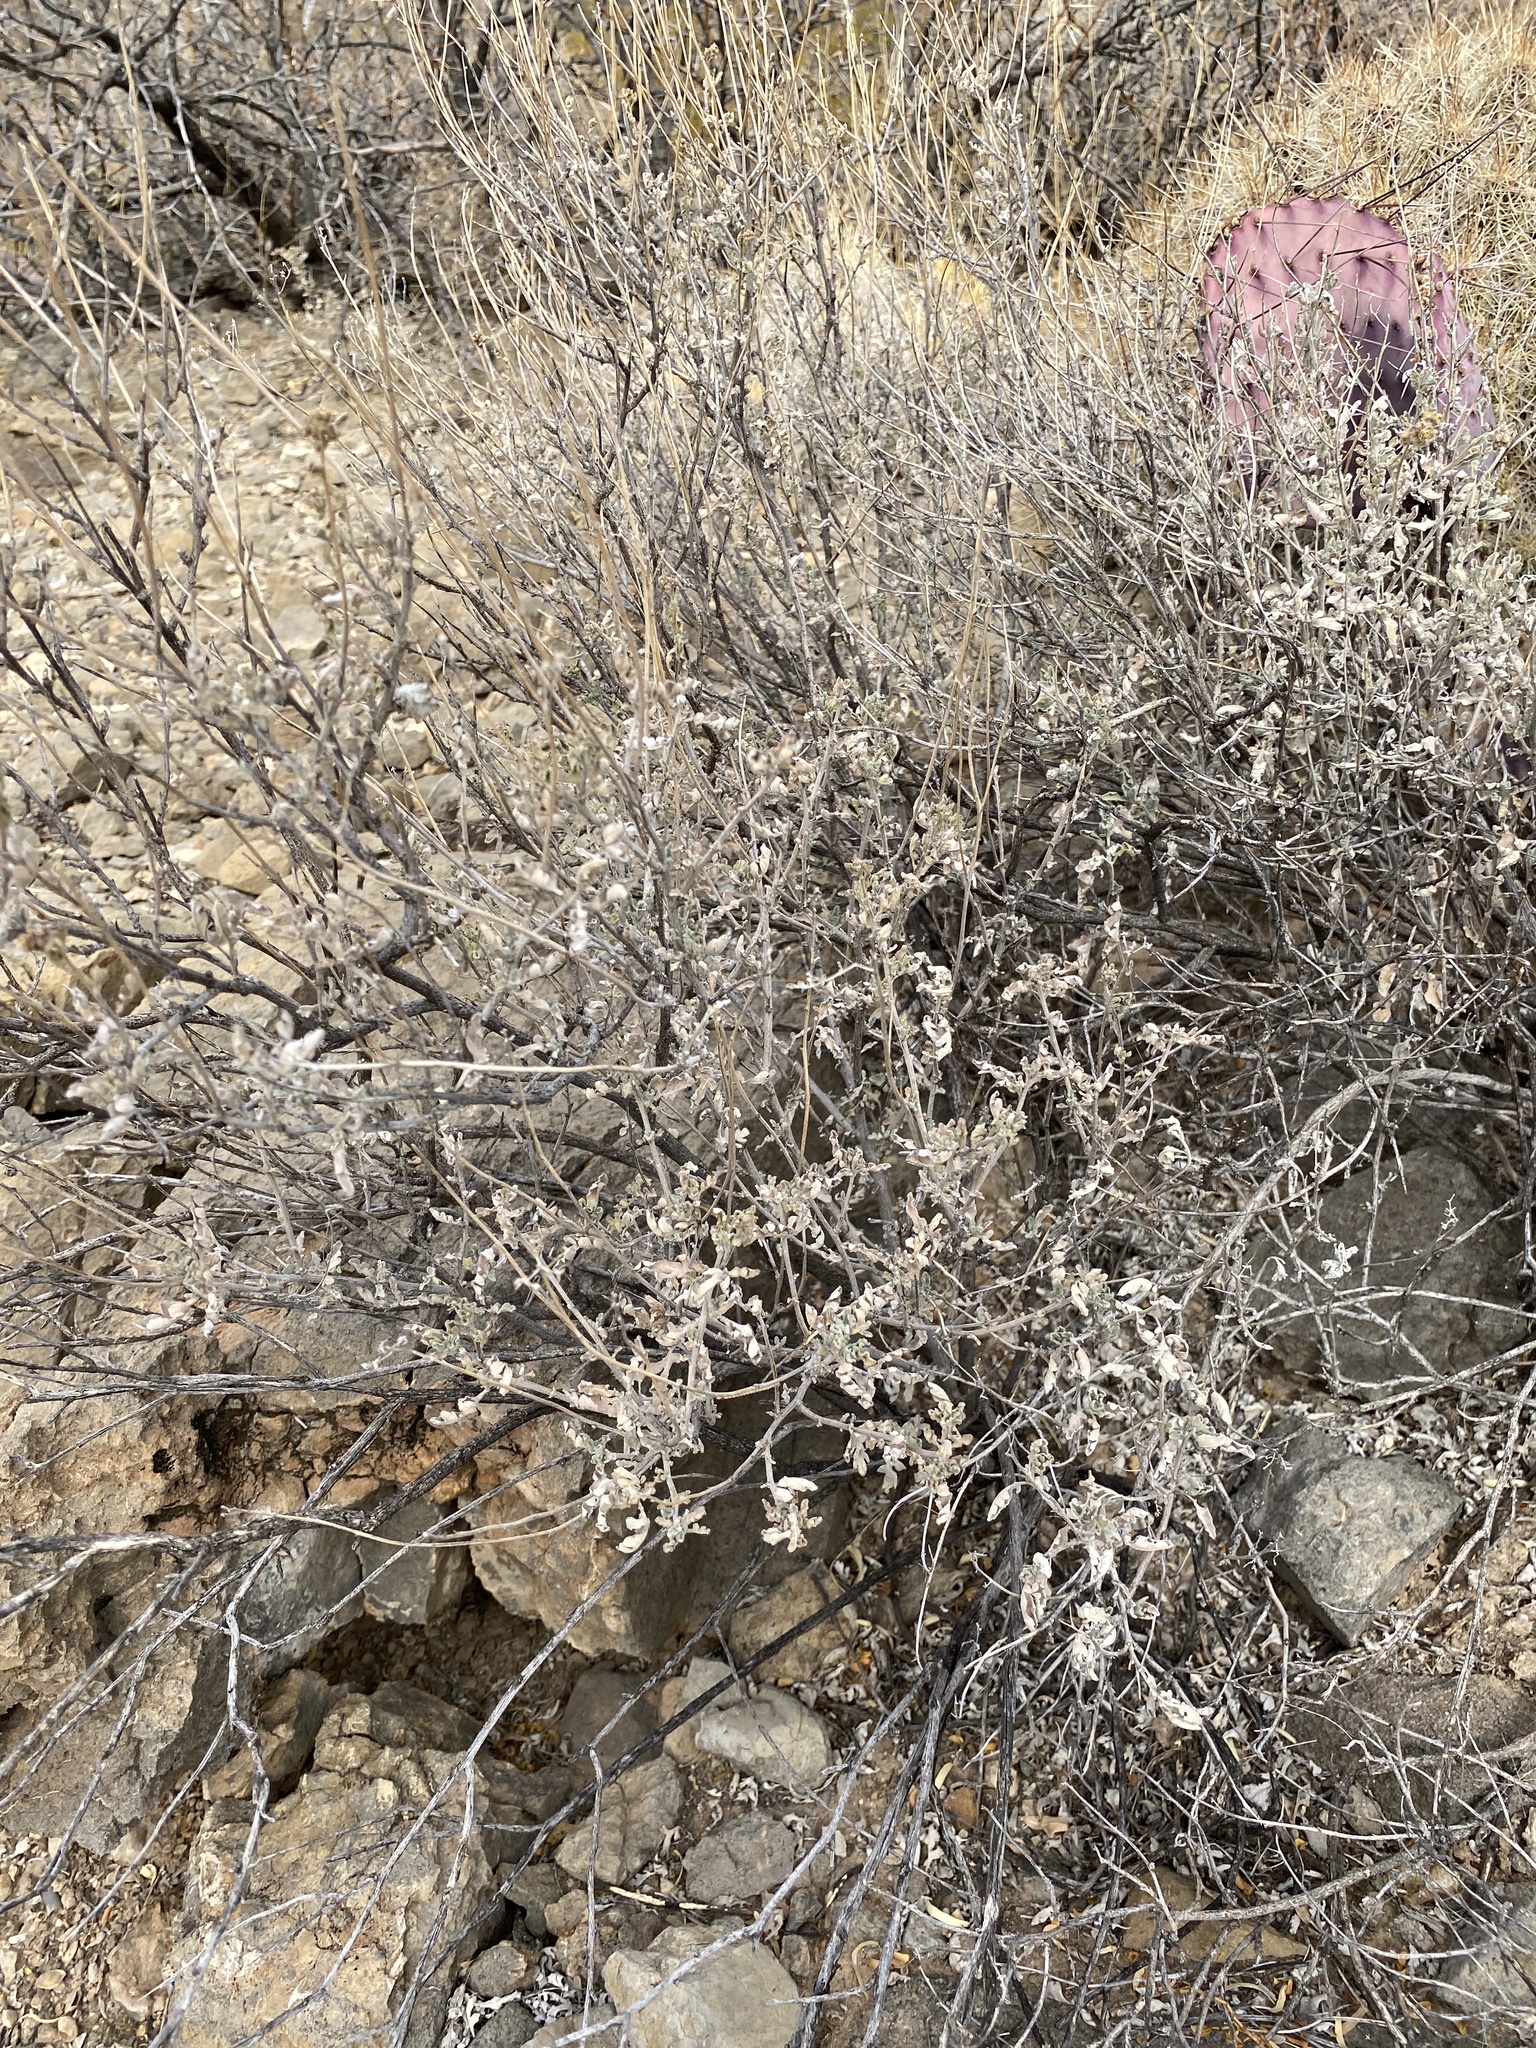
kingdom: Plantae
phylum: Tracheophyta
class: Magnoliopsida
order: Asterales
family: Asteraceae
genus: Parthenium
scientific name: Parthenium incanum
